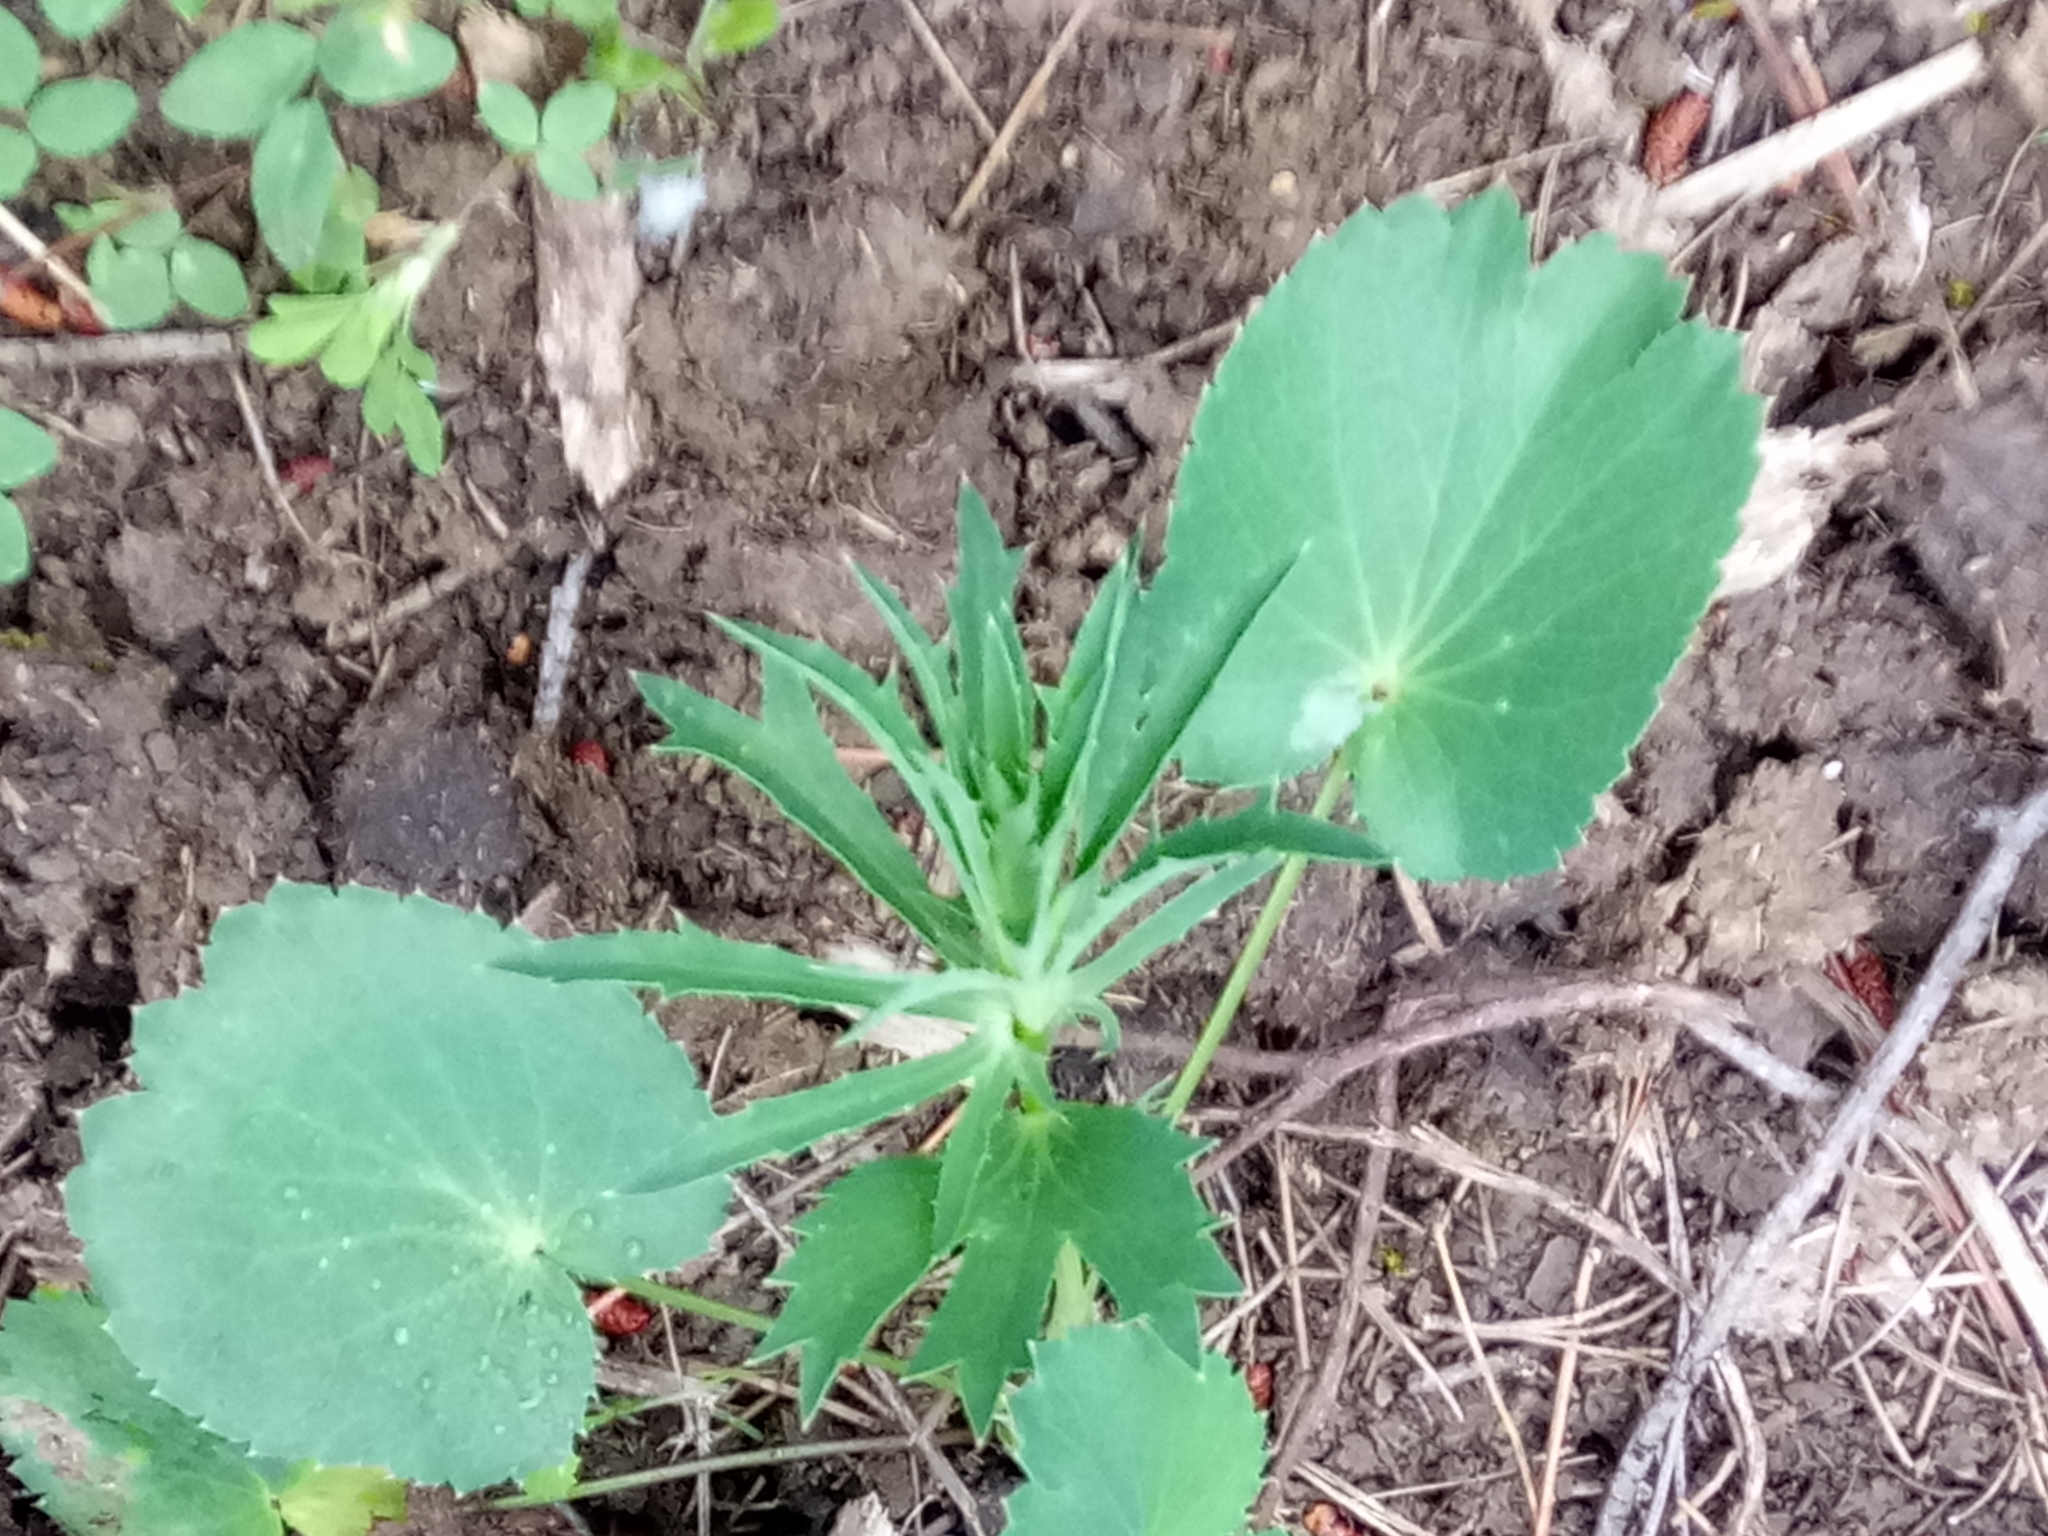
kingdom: Plantae
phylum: Tracheophyta
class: Magnoliopsida
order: Apiales
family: Apiaceae
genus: Eryngium
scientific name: Eryngium tricuspidatum
